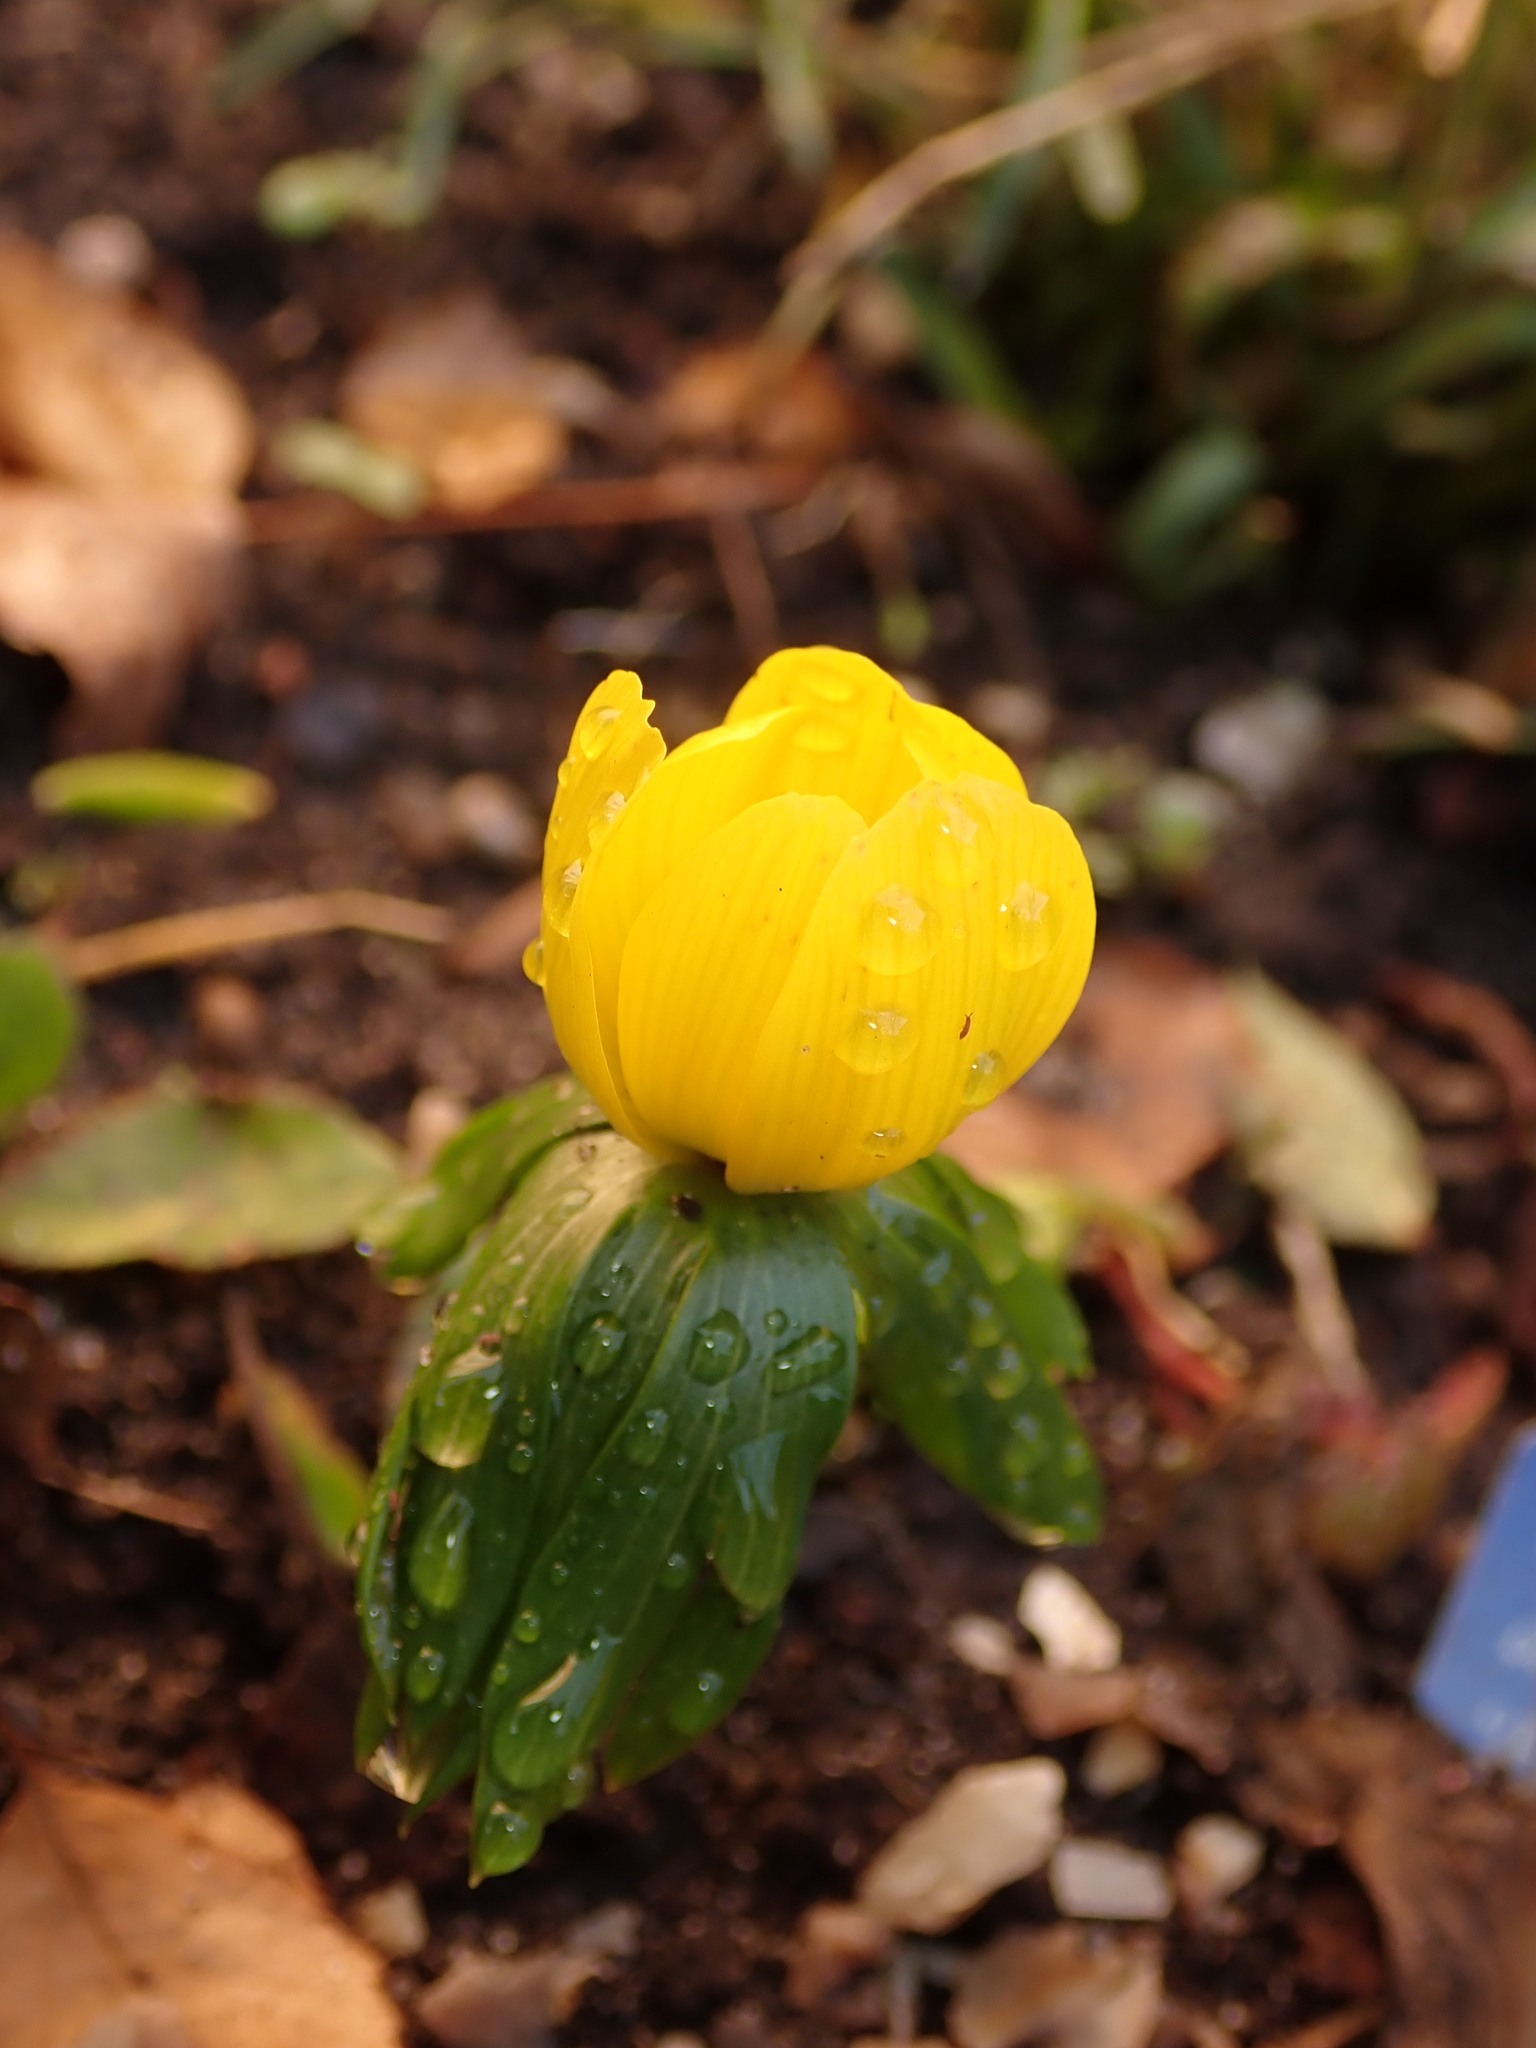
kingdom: Plantae
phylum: Tracheophyta
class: Magnoliopsida
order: Ranunculales
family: Ranunculaceae
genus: Eranthis
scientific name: Eranthis hyemalis
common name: Winter aconite
